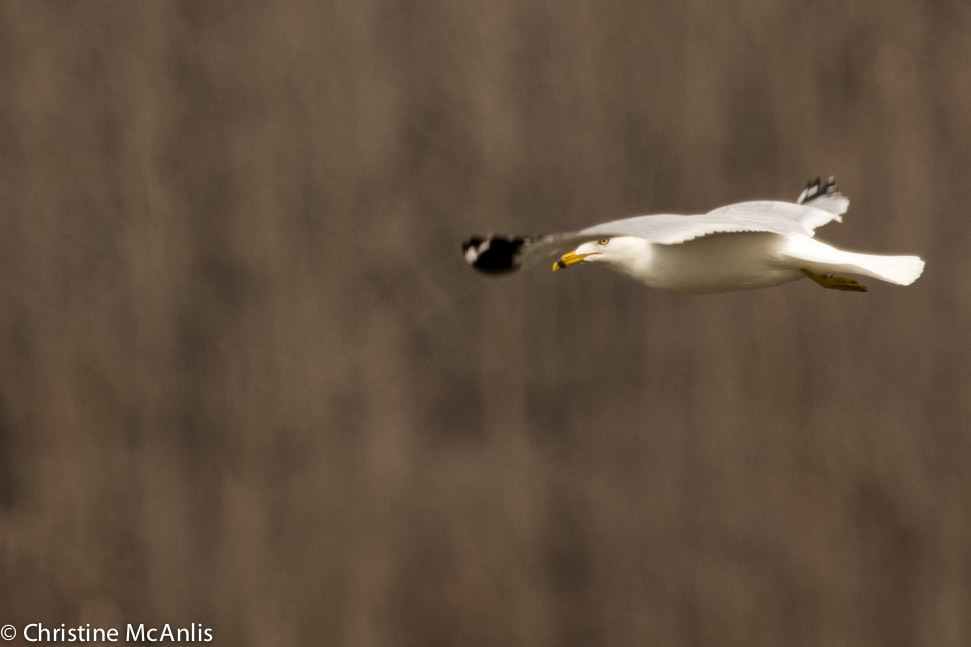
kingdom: Animalia
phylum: Chordata
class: Aves
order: Charadriiformes
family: Laridae
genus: Larus
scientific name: Larus delawarensis
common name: Ring-billed gull
